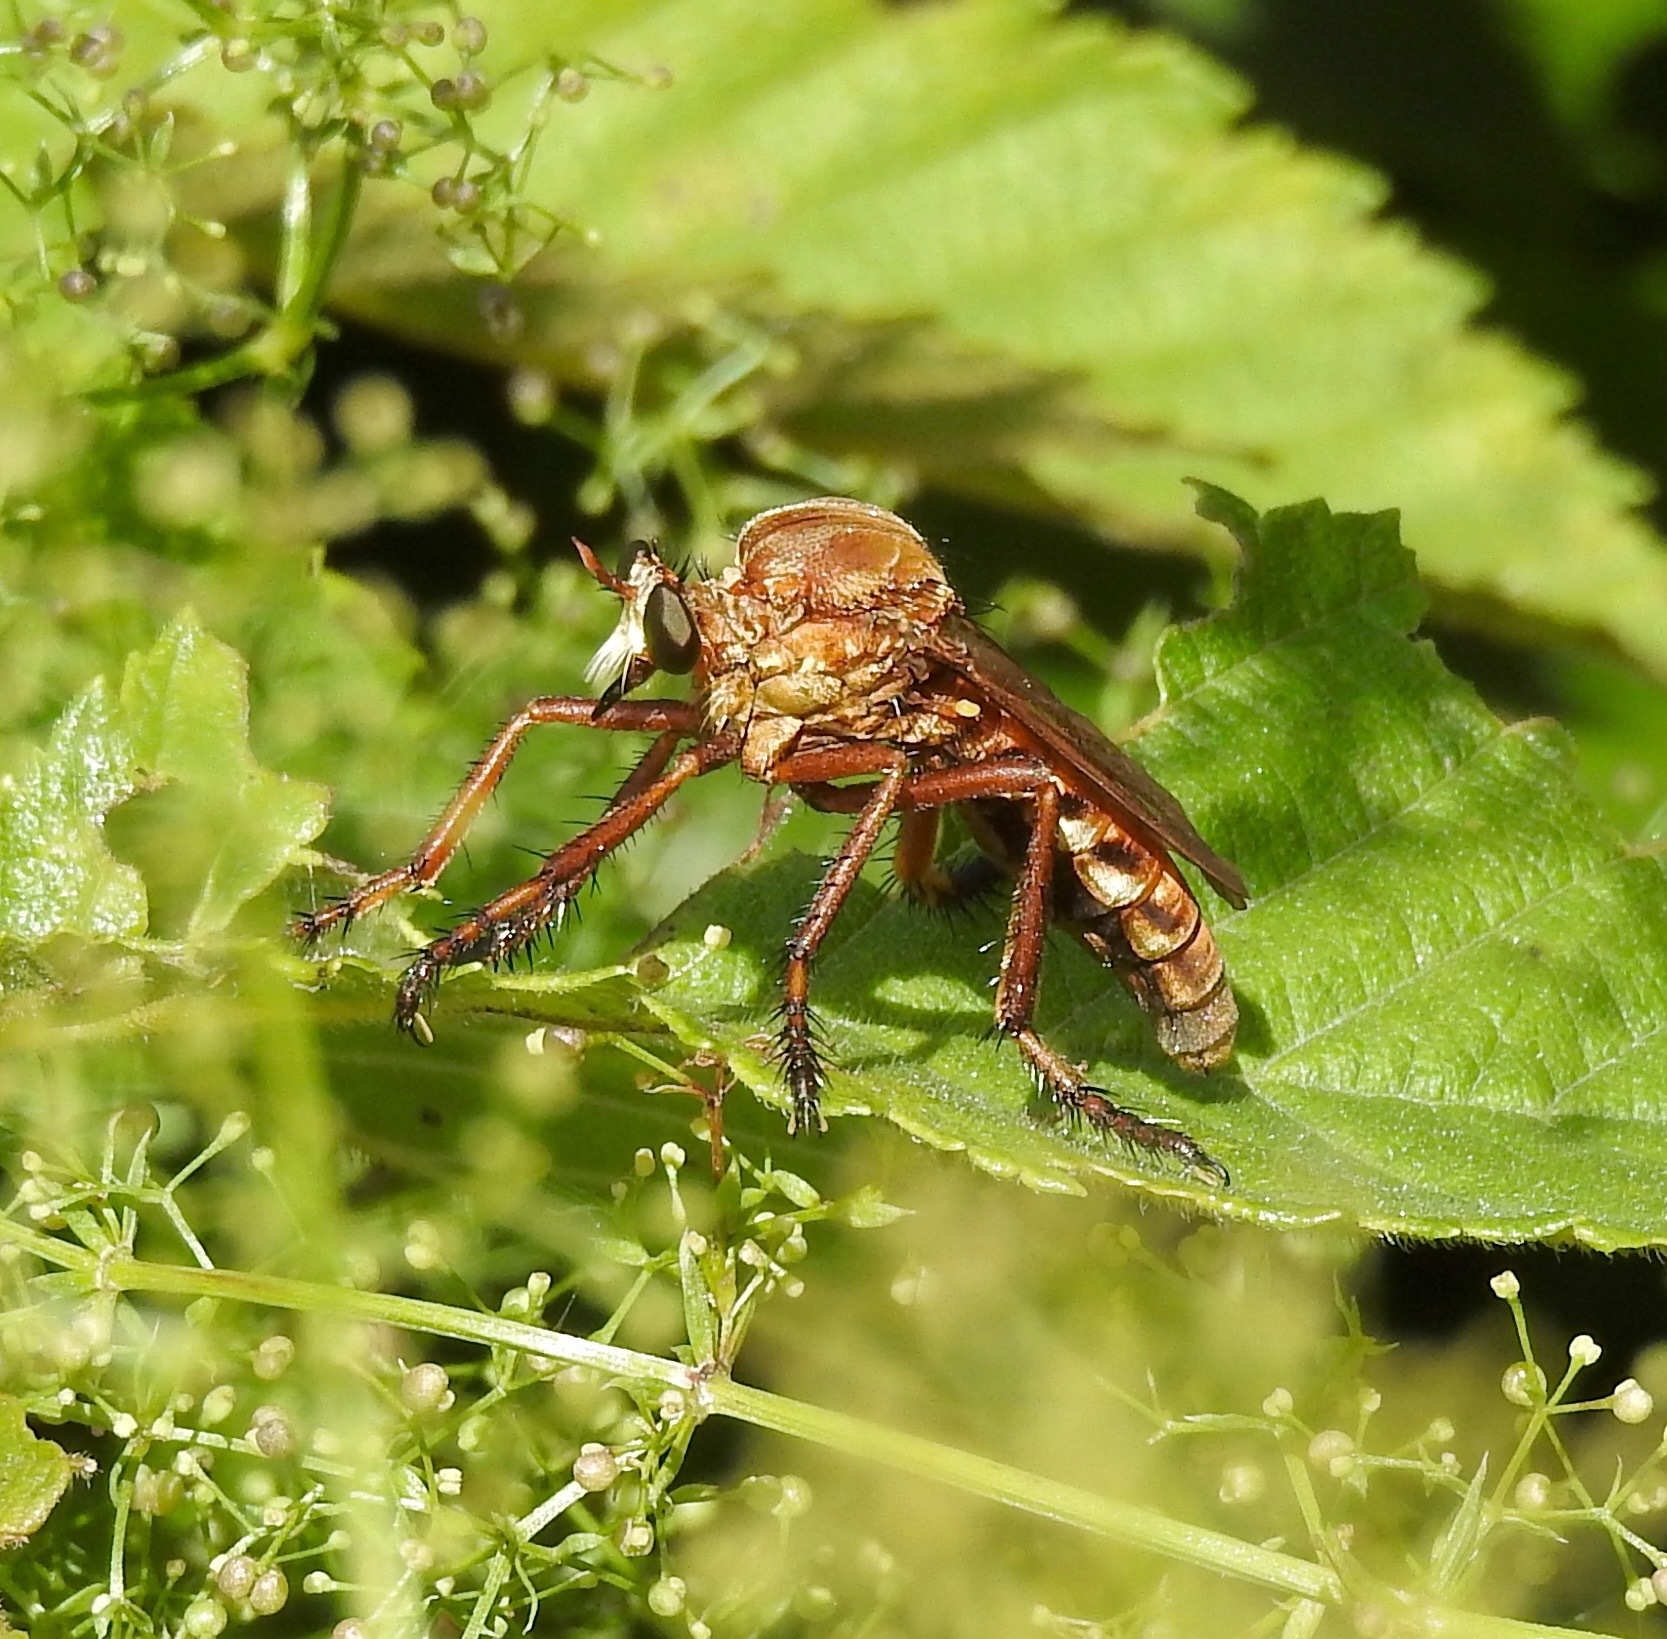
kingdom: Animalia
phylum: Arthropoda
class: Insecta
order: Diptera
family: Asilidae
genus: Diogmites
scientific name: Diogmites basalis
